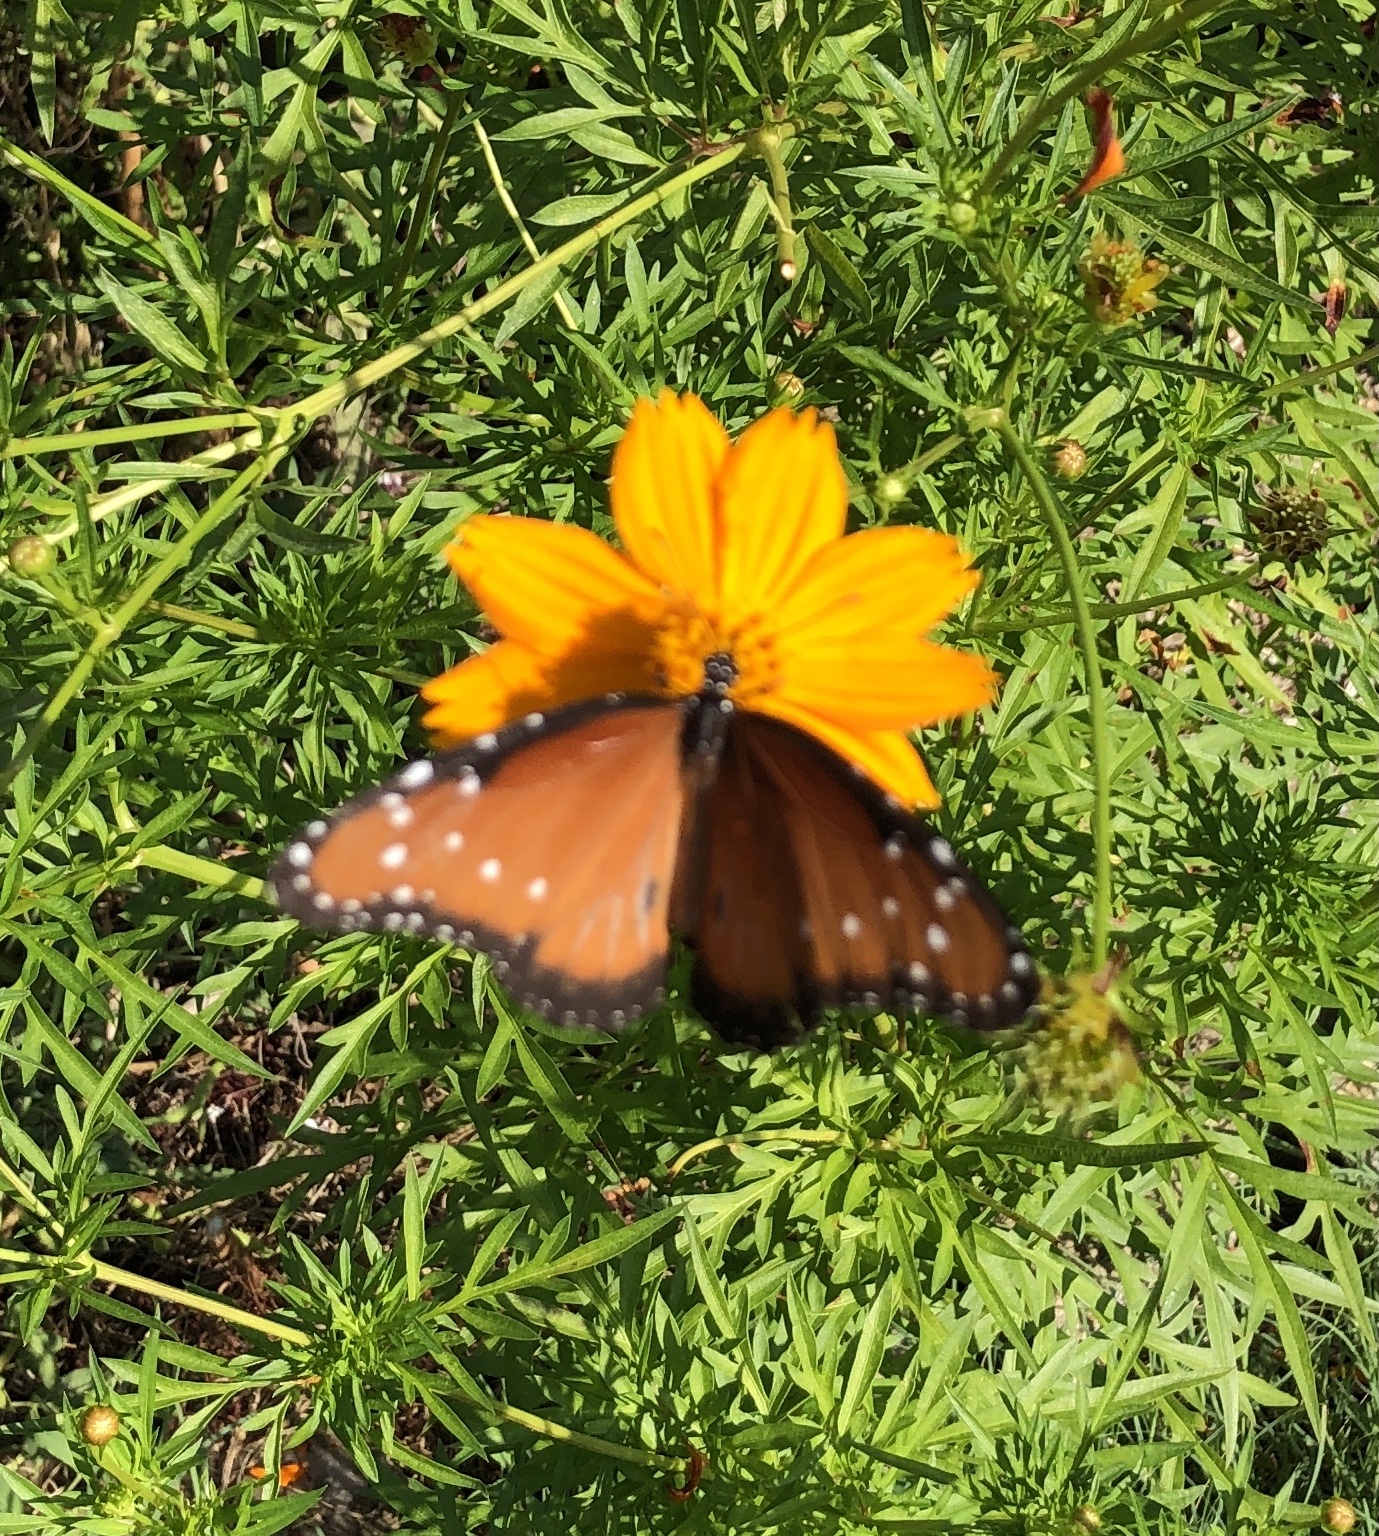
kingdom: Animalia
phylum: Arthropoda
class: Insecta
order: Lepidoptera
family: Nymphalidae
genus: Danaus
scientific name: Danaus gilippus
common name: Queen
